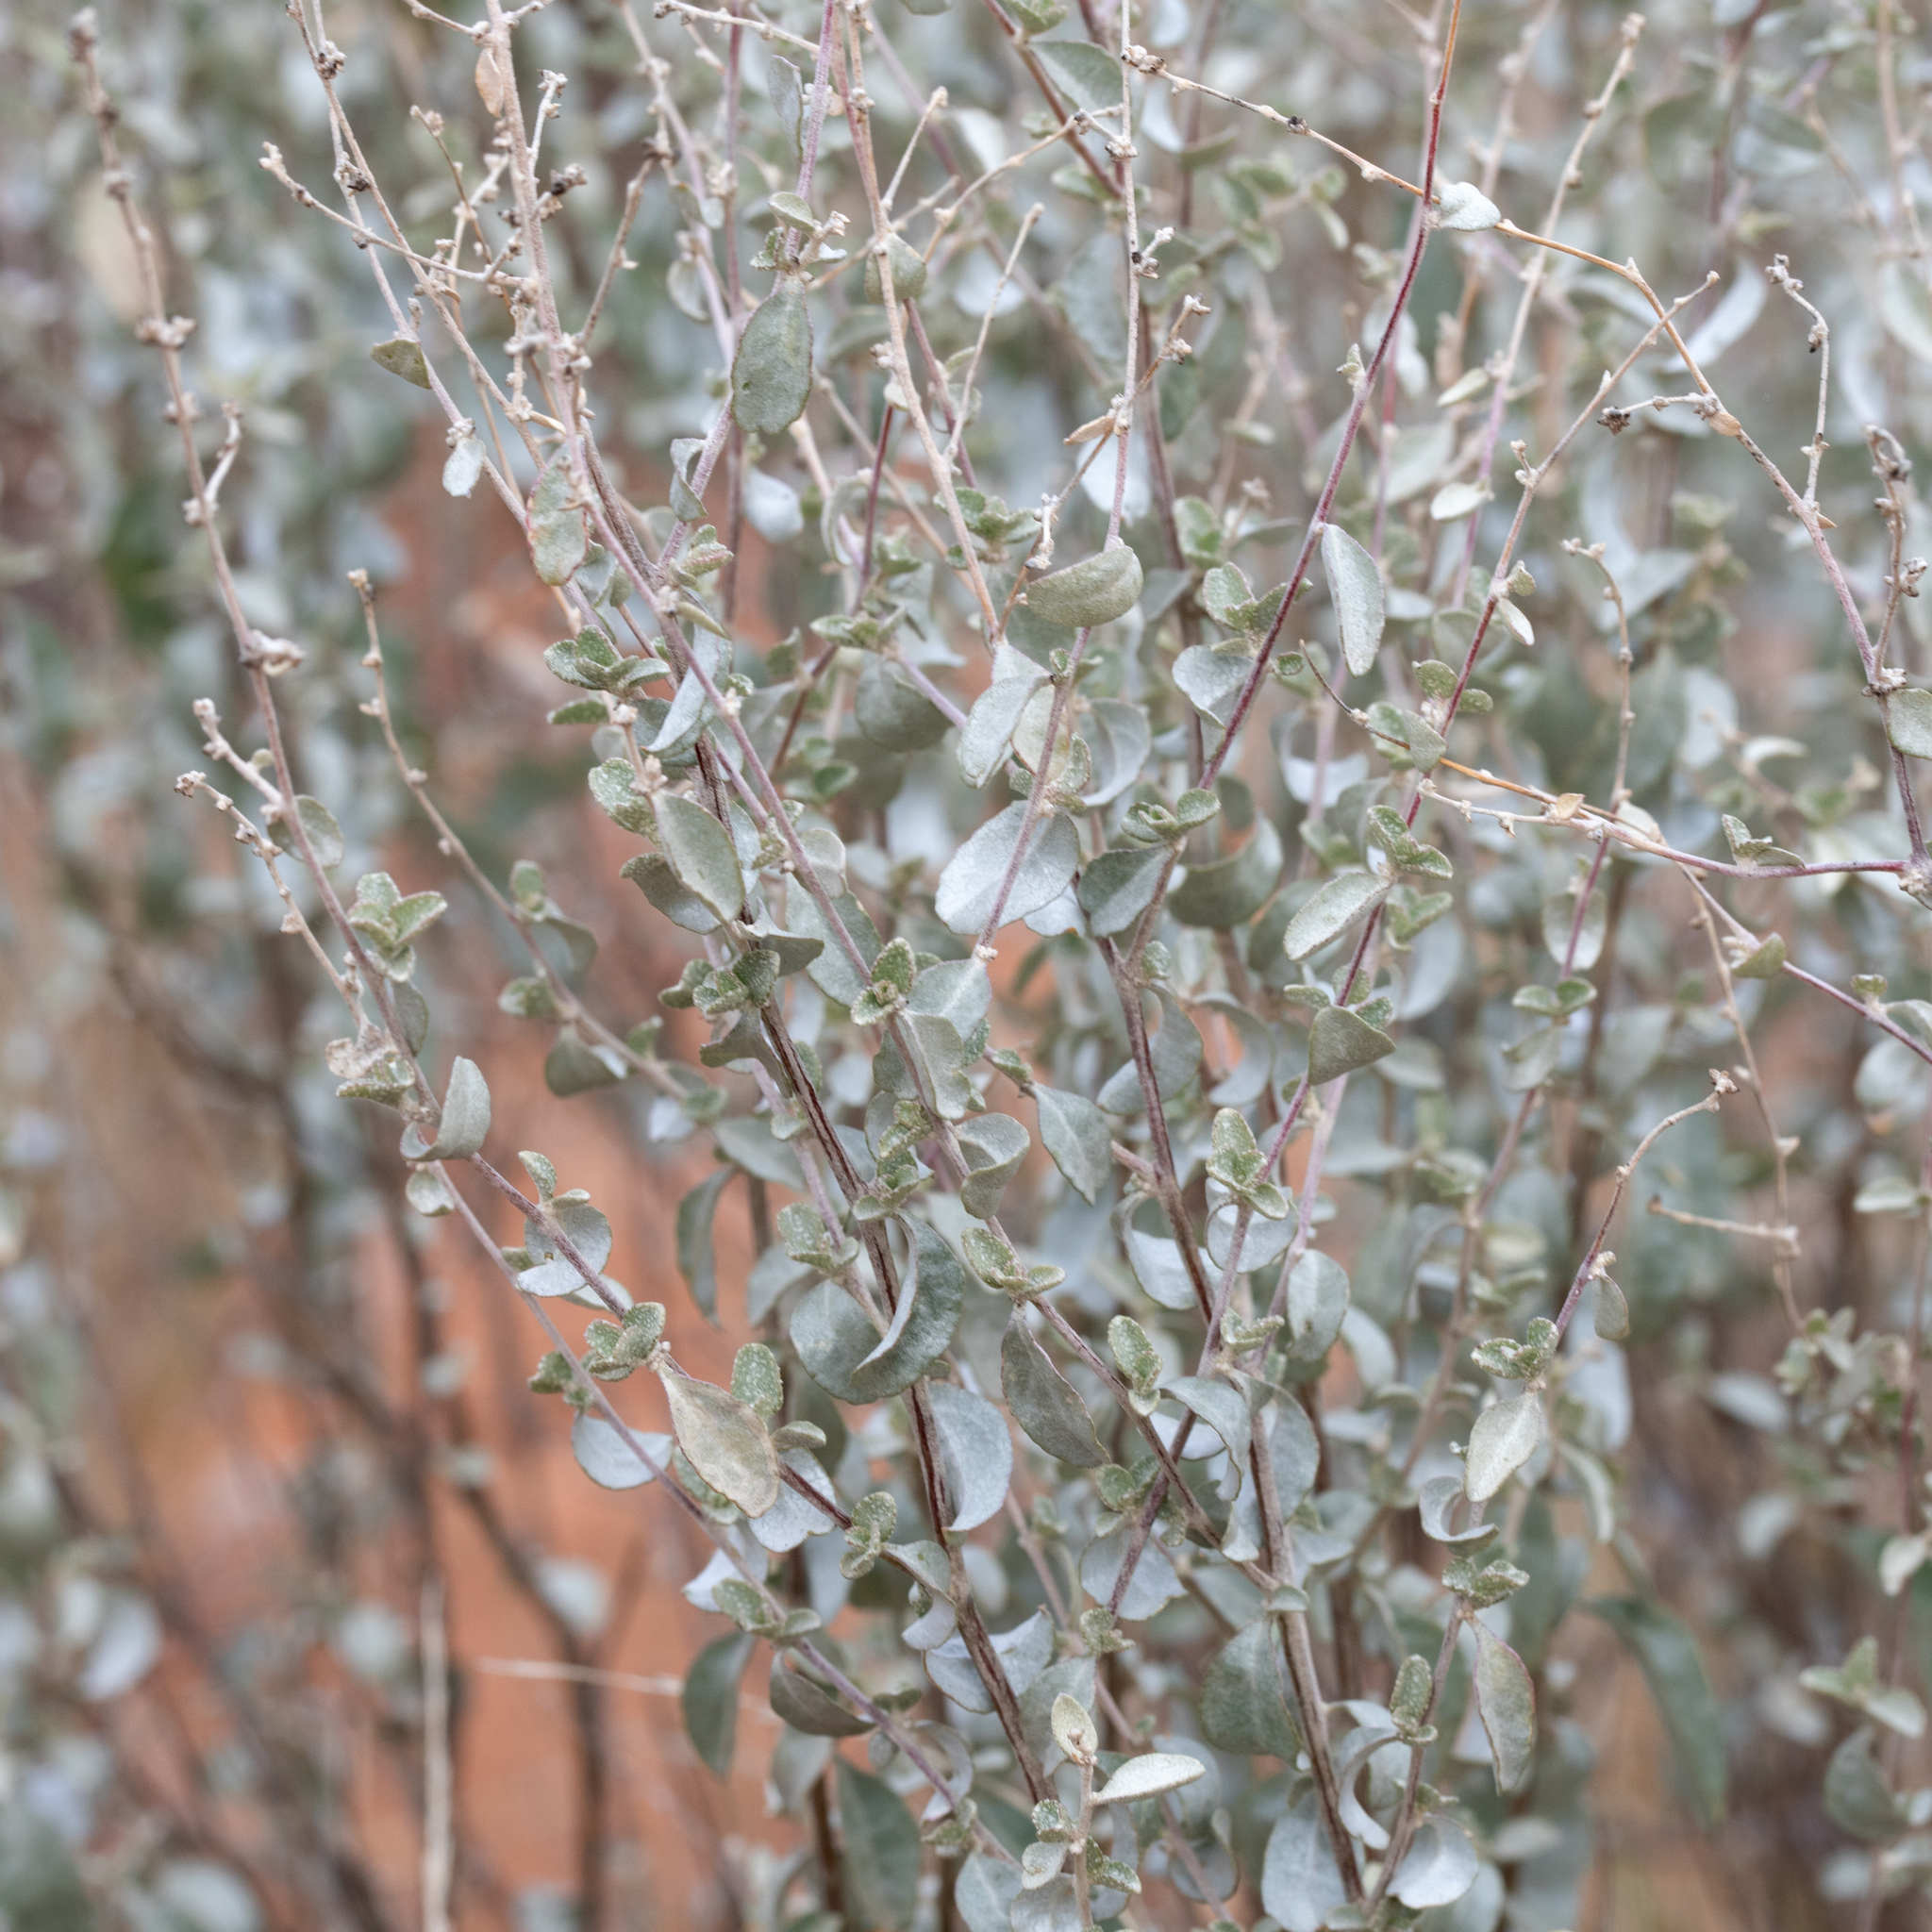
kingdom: Plantae
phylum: Tracheophyta
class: Magnoliopsida
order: Caryophyllales
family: Amaranthaceae
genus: Atriplex
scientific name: Atriplex stipitata
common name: Mallee saltbush
